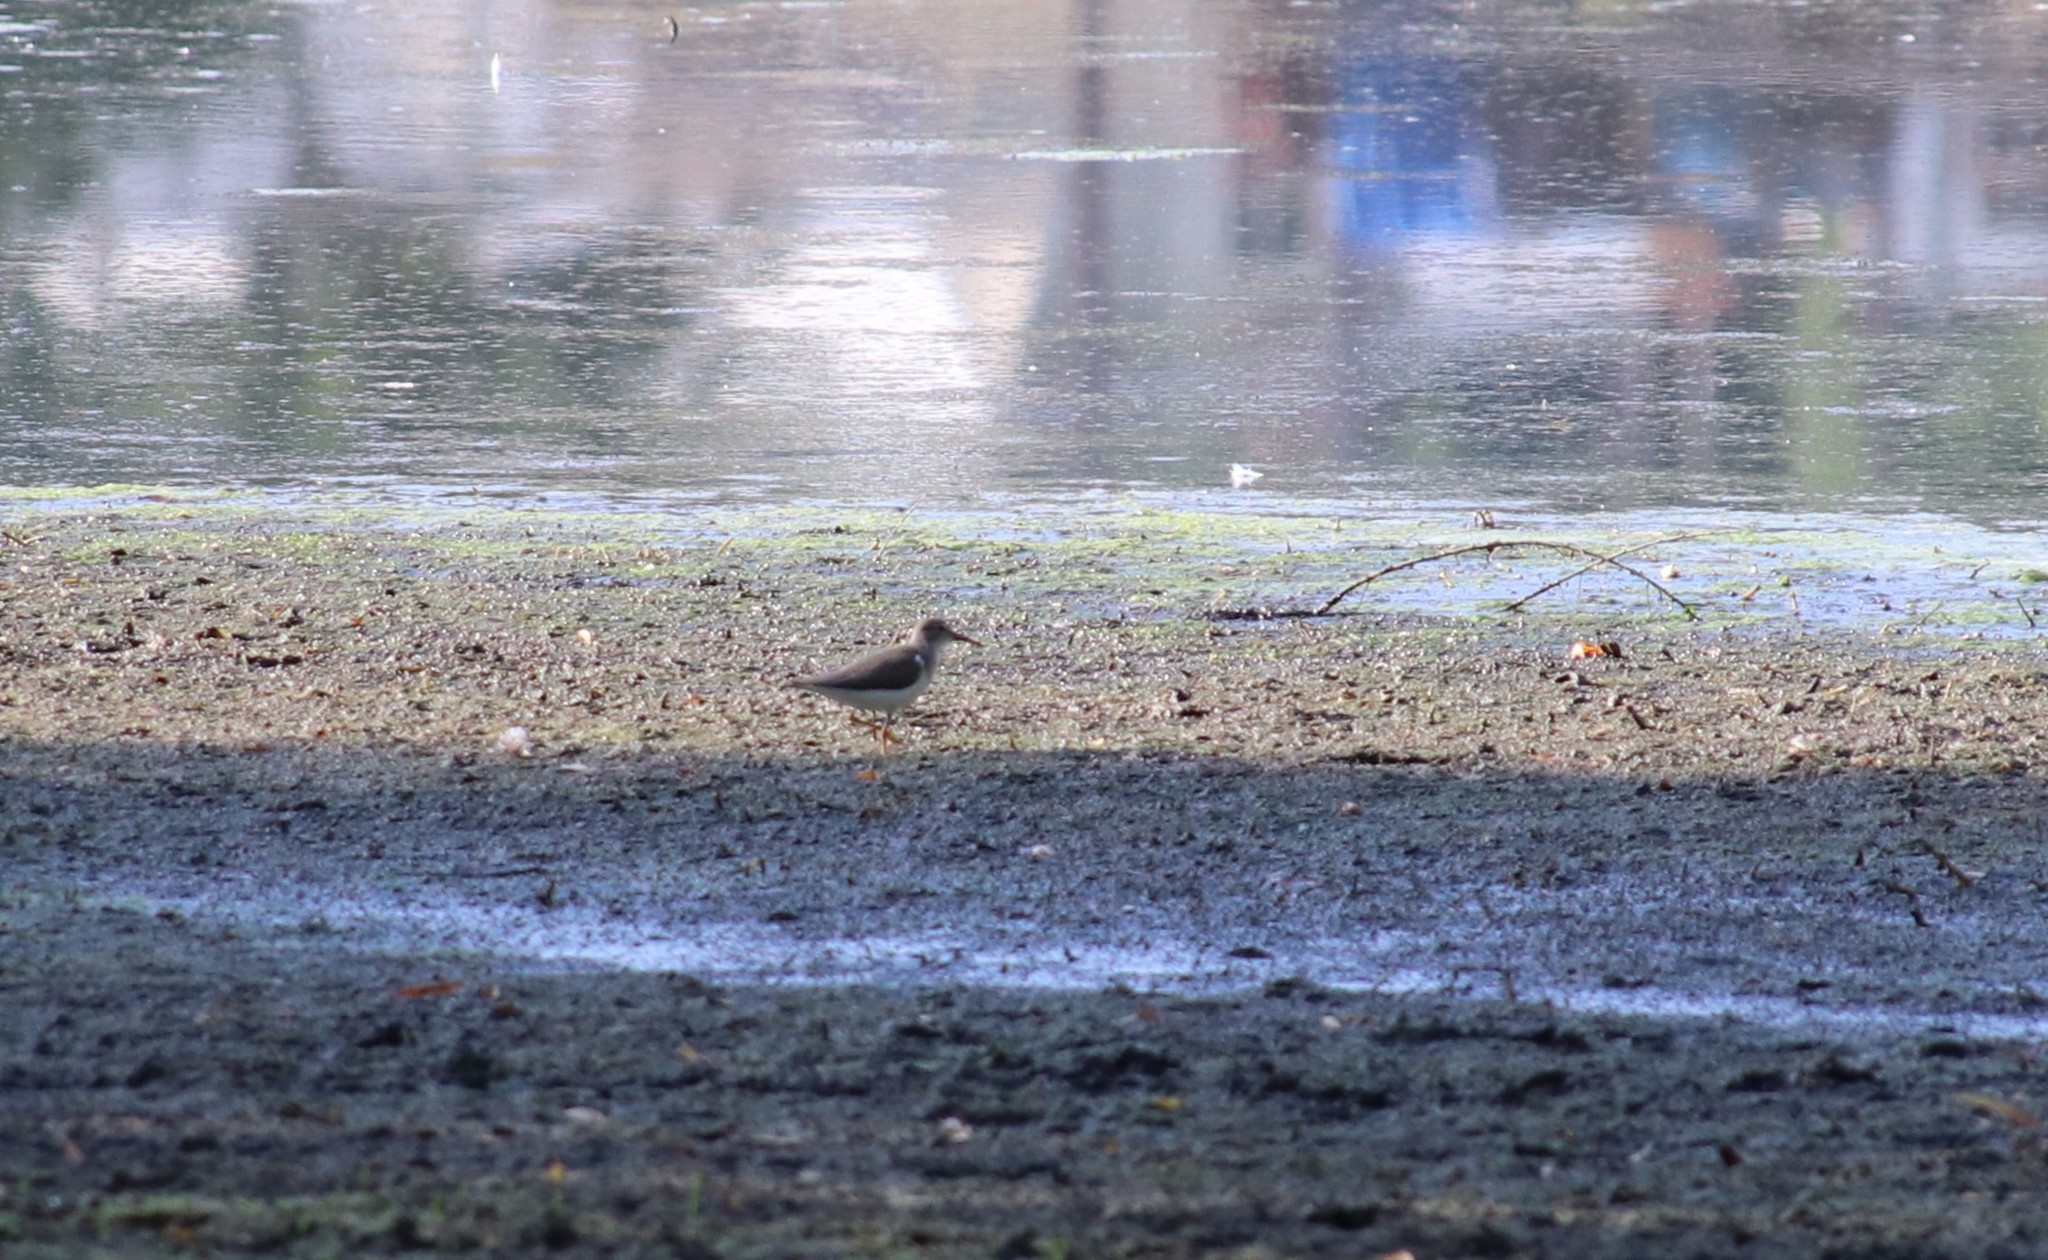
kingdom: Animalia
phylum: Chordata
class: Aves
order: Charadriiformes
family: Scolopacidae
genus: Actitis
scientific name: Actitis macularius
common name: Spotted sandpiper
